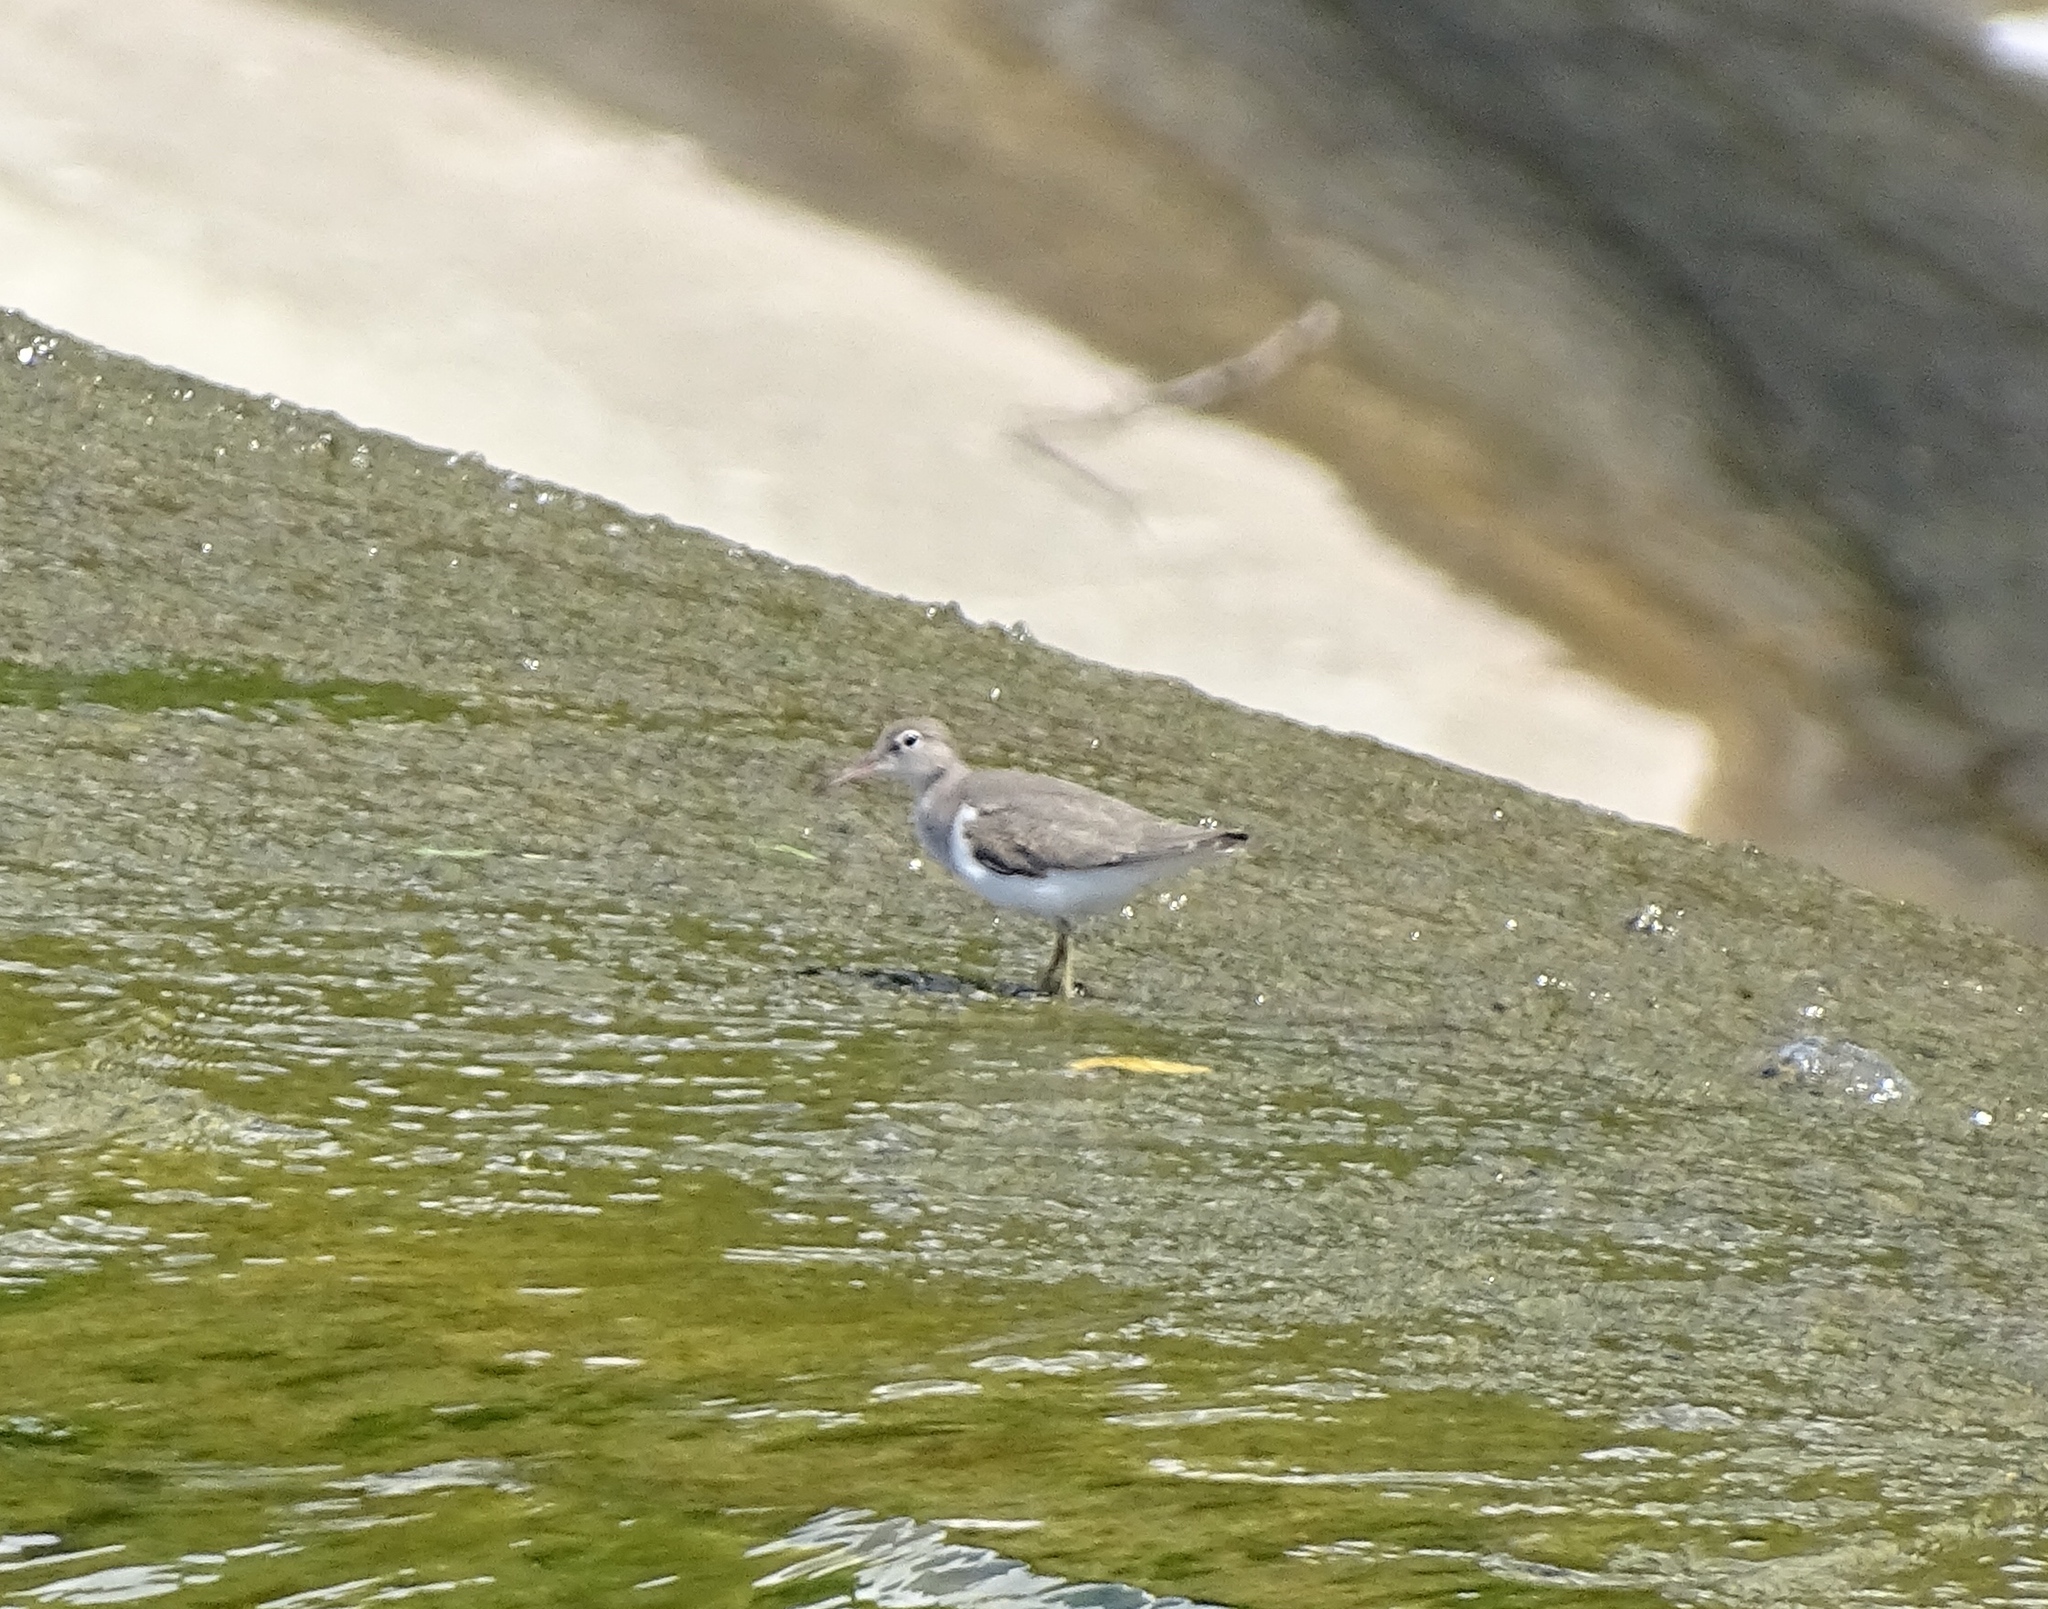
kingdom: Animalia
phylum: Chordata
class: Aves
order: Charadriiformes
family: Scolopacidae
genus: Actitis
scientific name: Actitis macularius
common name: Spotted sandpiper
